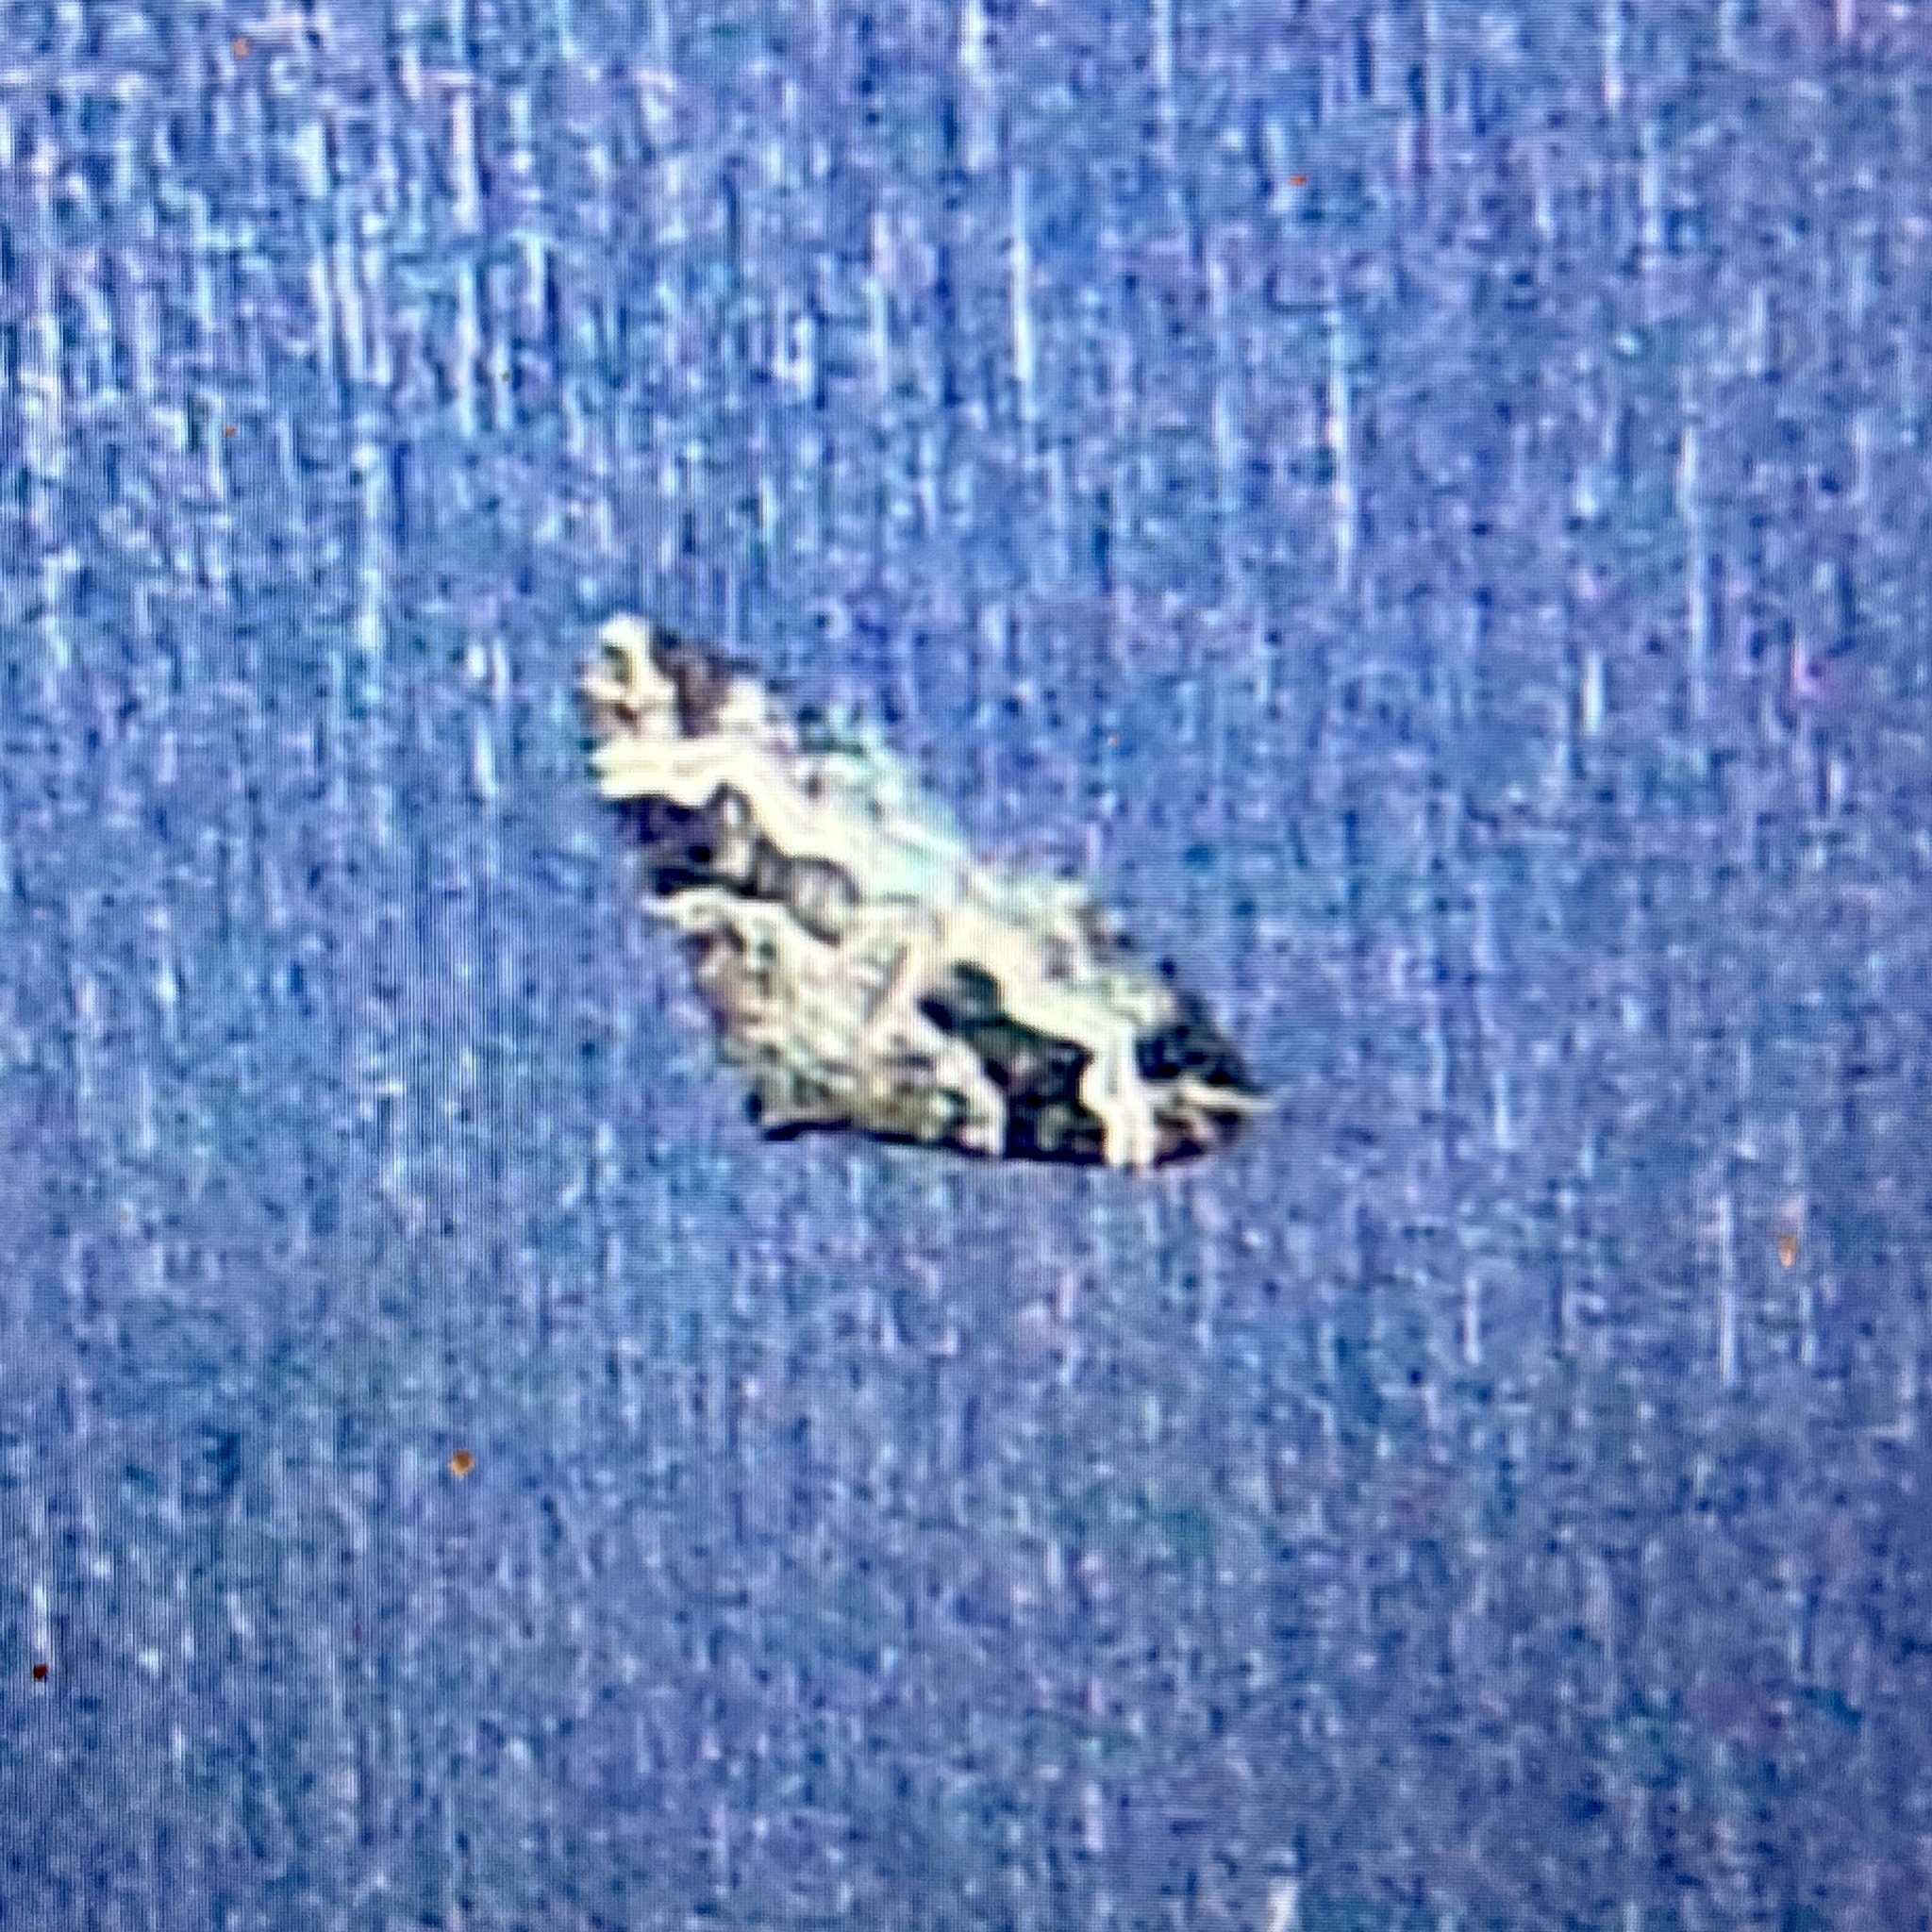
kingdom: Animalia
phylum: Arthropoda
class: Insecta
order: Lepidoptera
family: Geometridae
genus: Epirrhoe
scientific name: Epirrhoe alternata
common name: Common carpet
